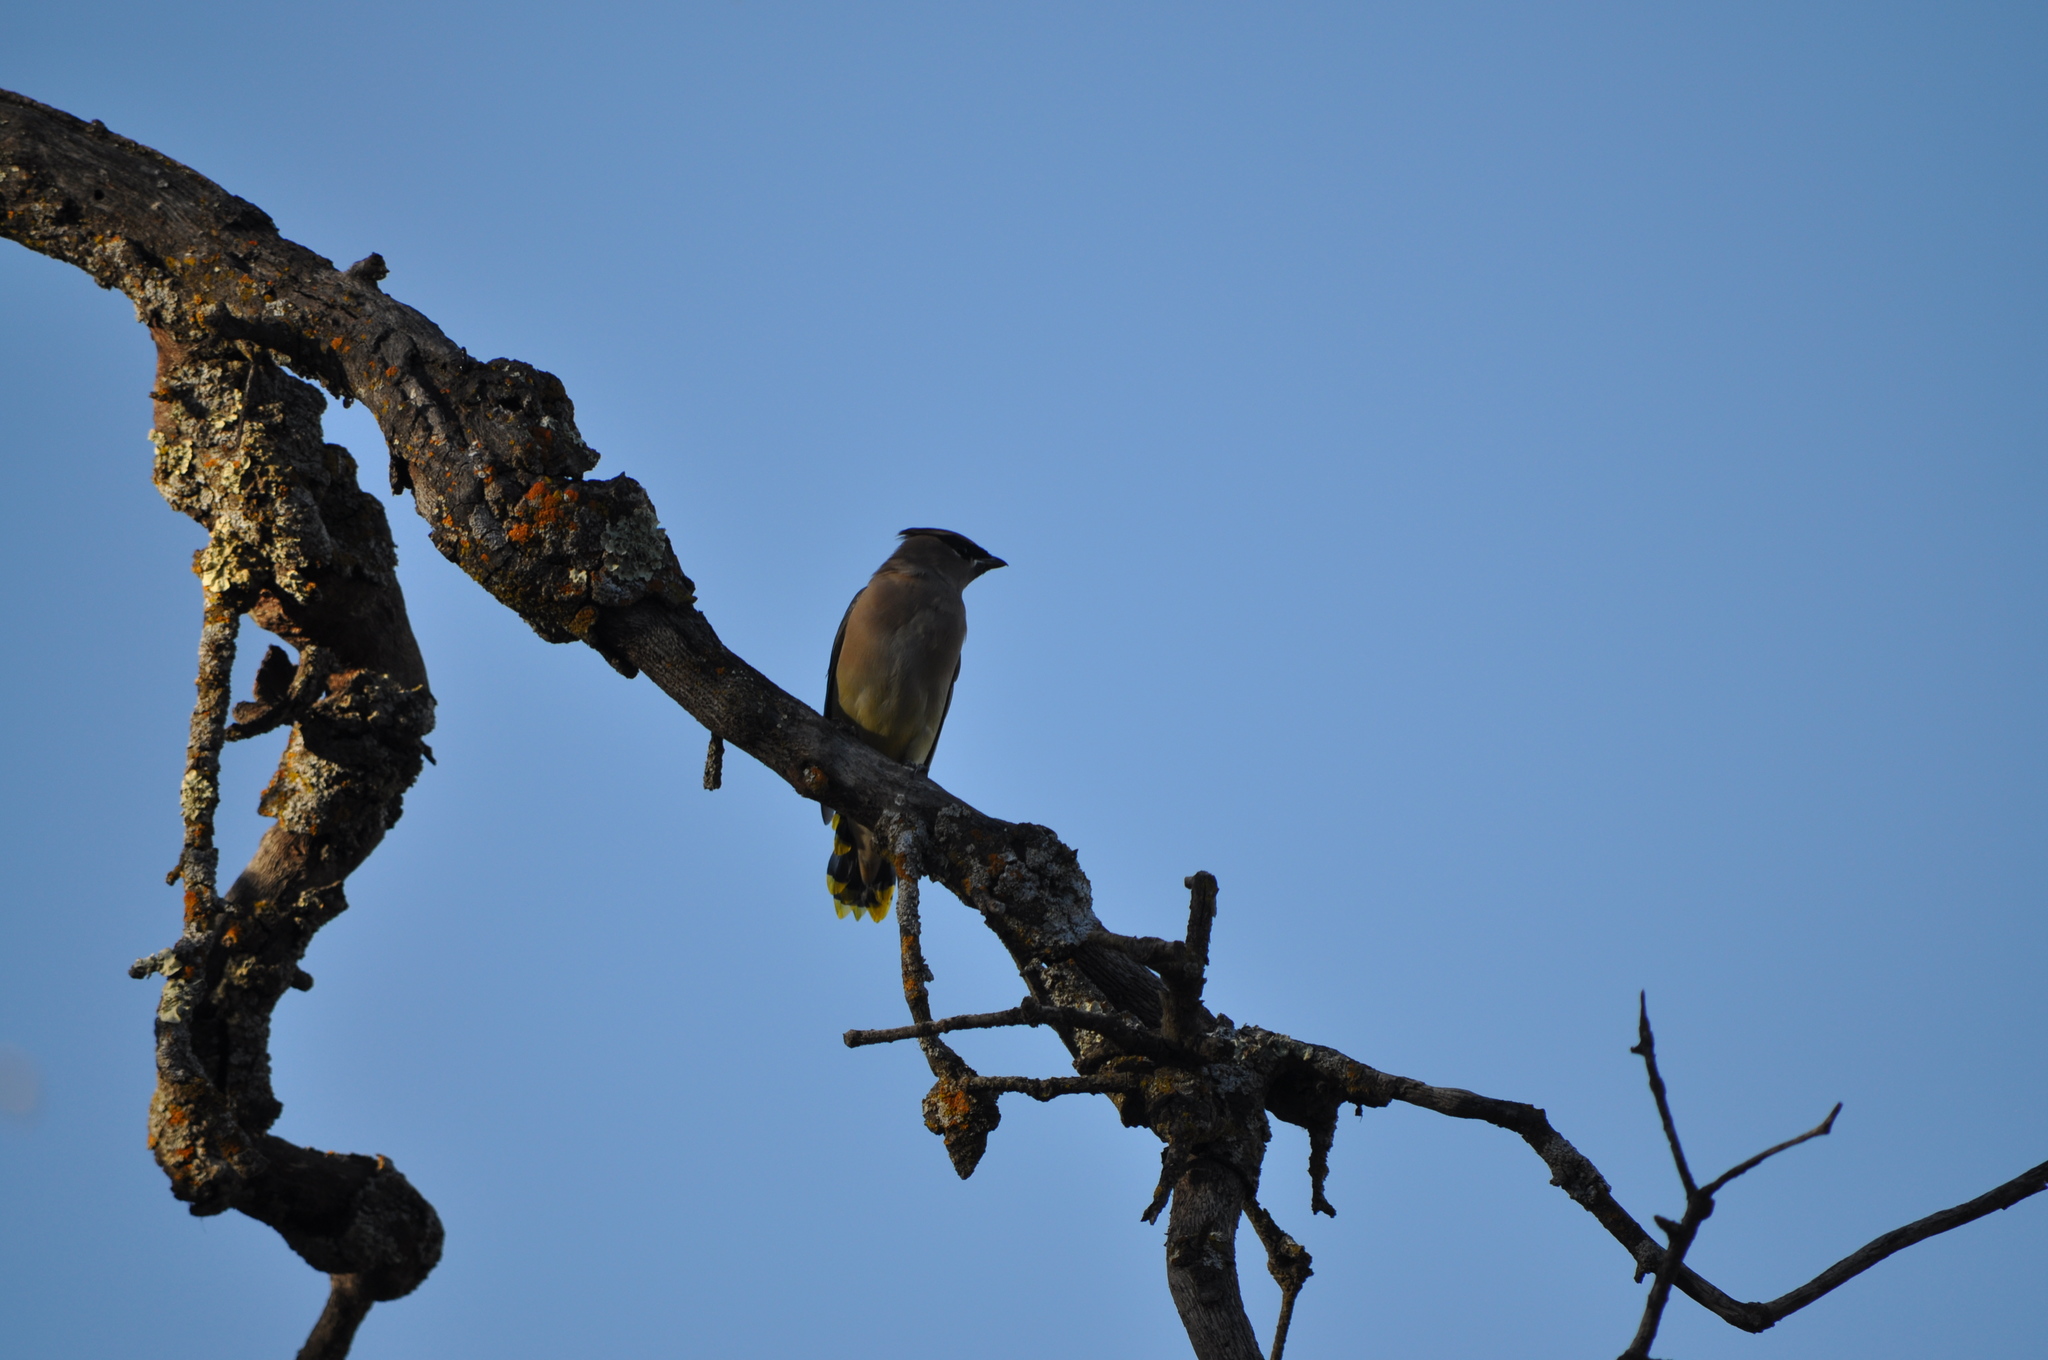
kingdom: Animalia
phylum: Chordata
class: Aves
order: Passeriformes
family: Bombycillidae
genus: Bombycilla
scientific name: Bombycilla cedrorum
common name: Cedar waxwing
